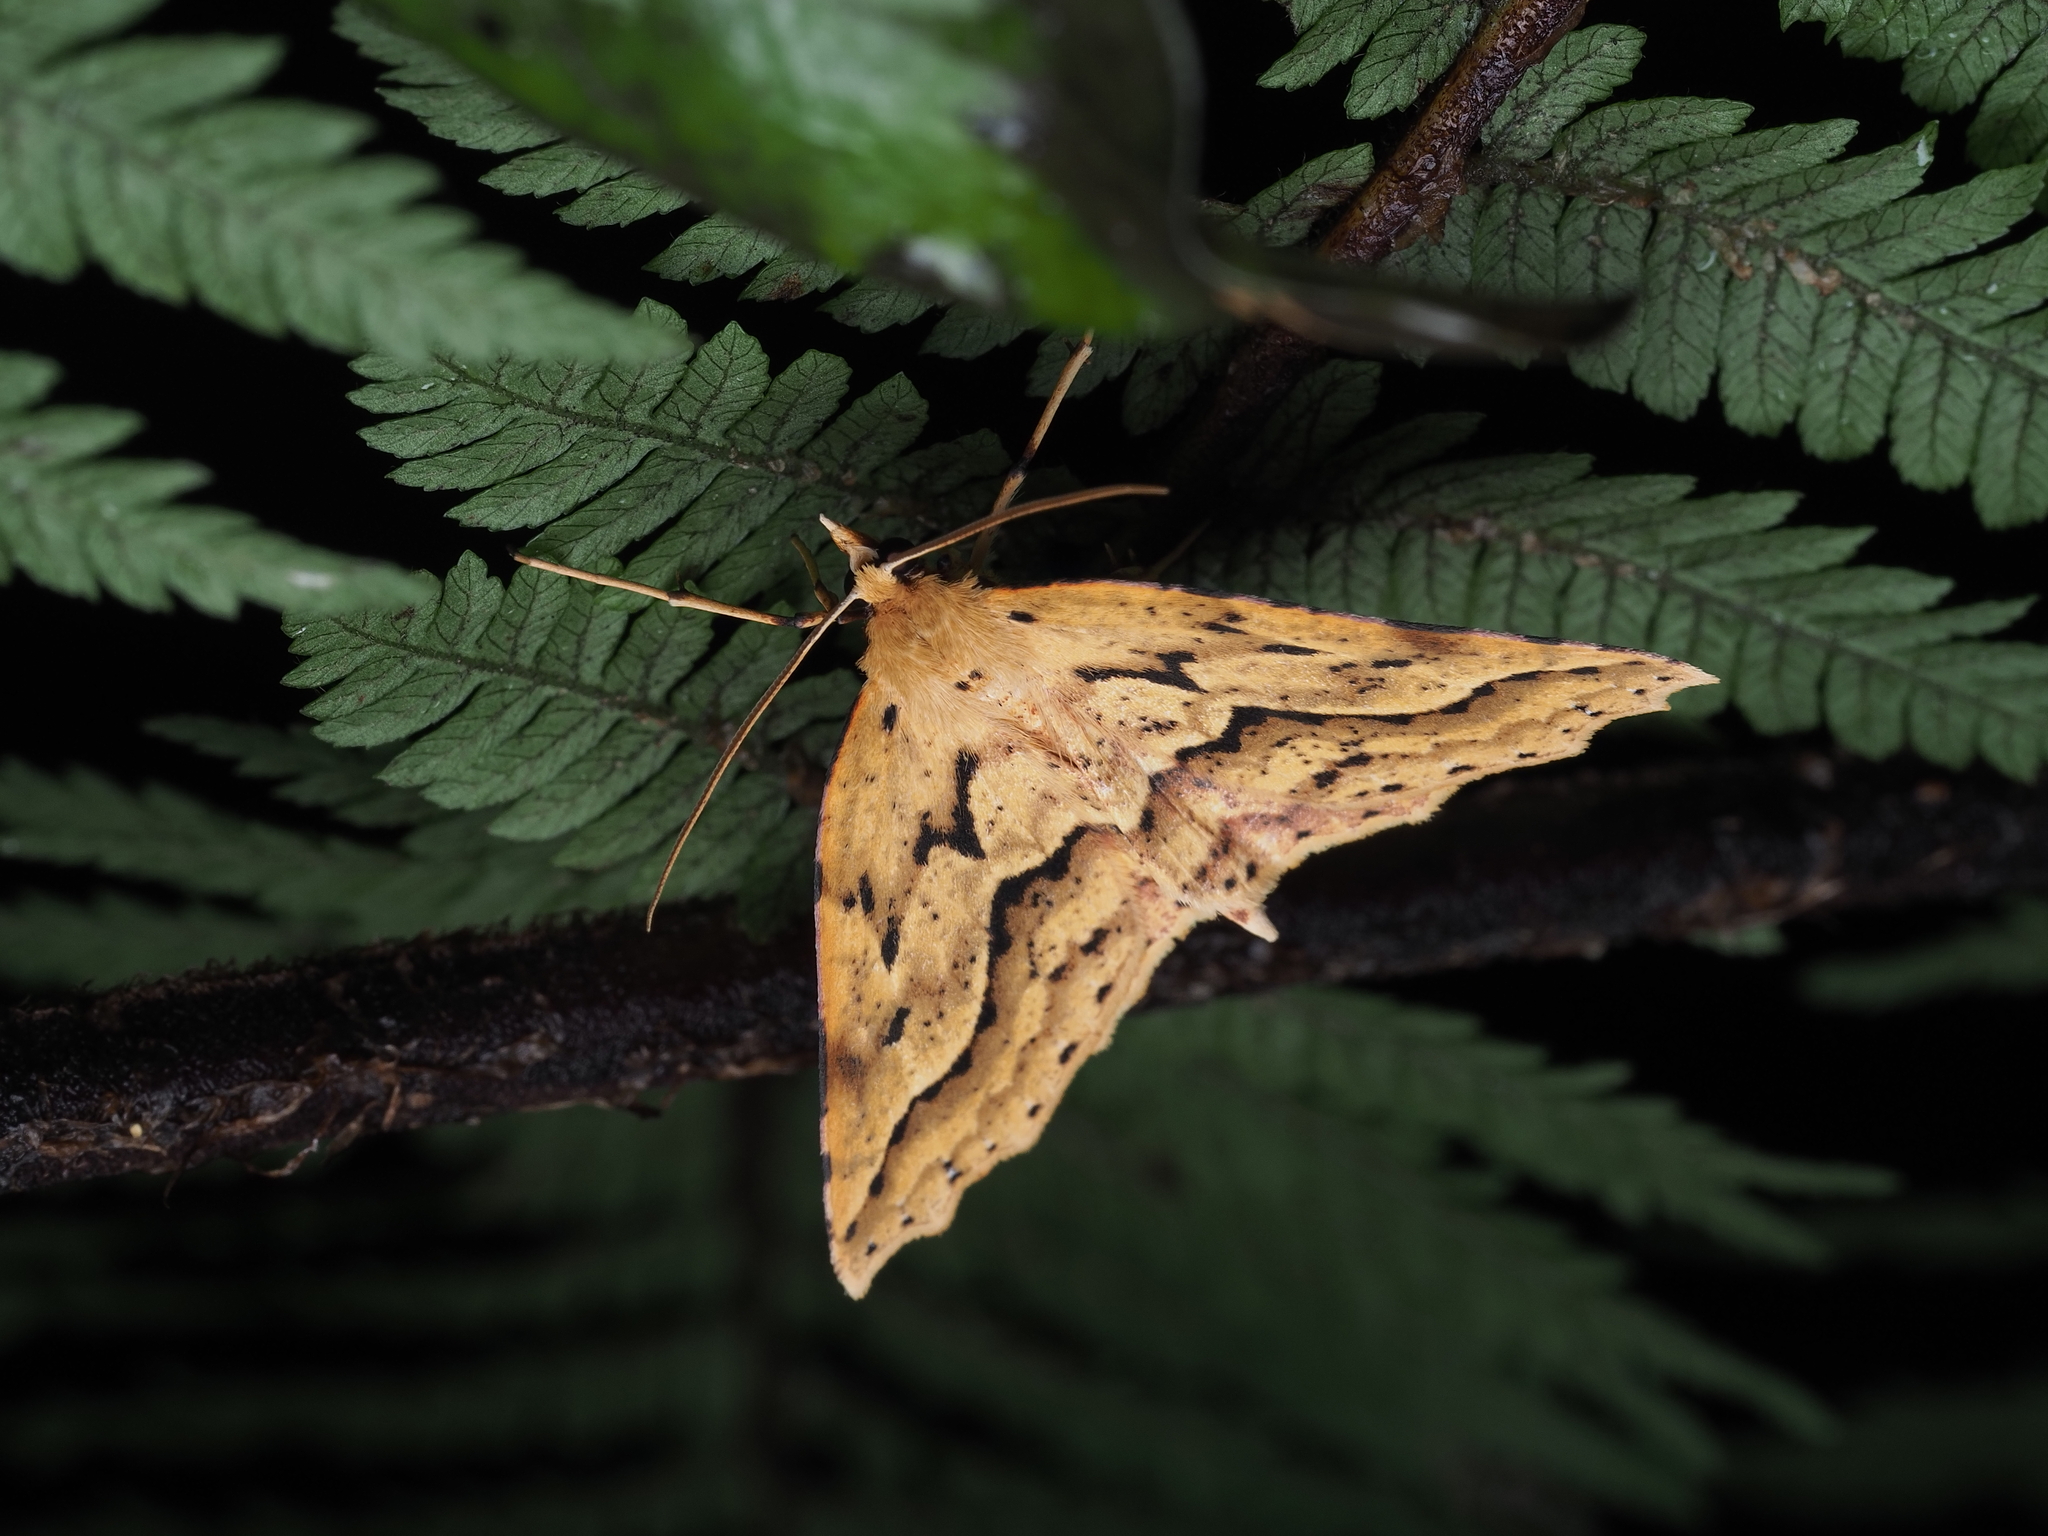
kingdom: Animalia
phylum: Arthropoda
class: Insecta
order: Lepidoptera
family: Geometridae
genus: Ischalis
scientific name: Ischalis variabilis
